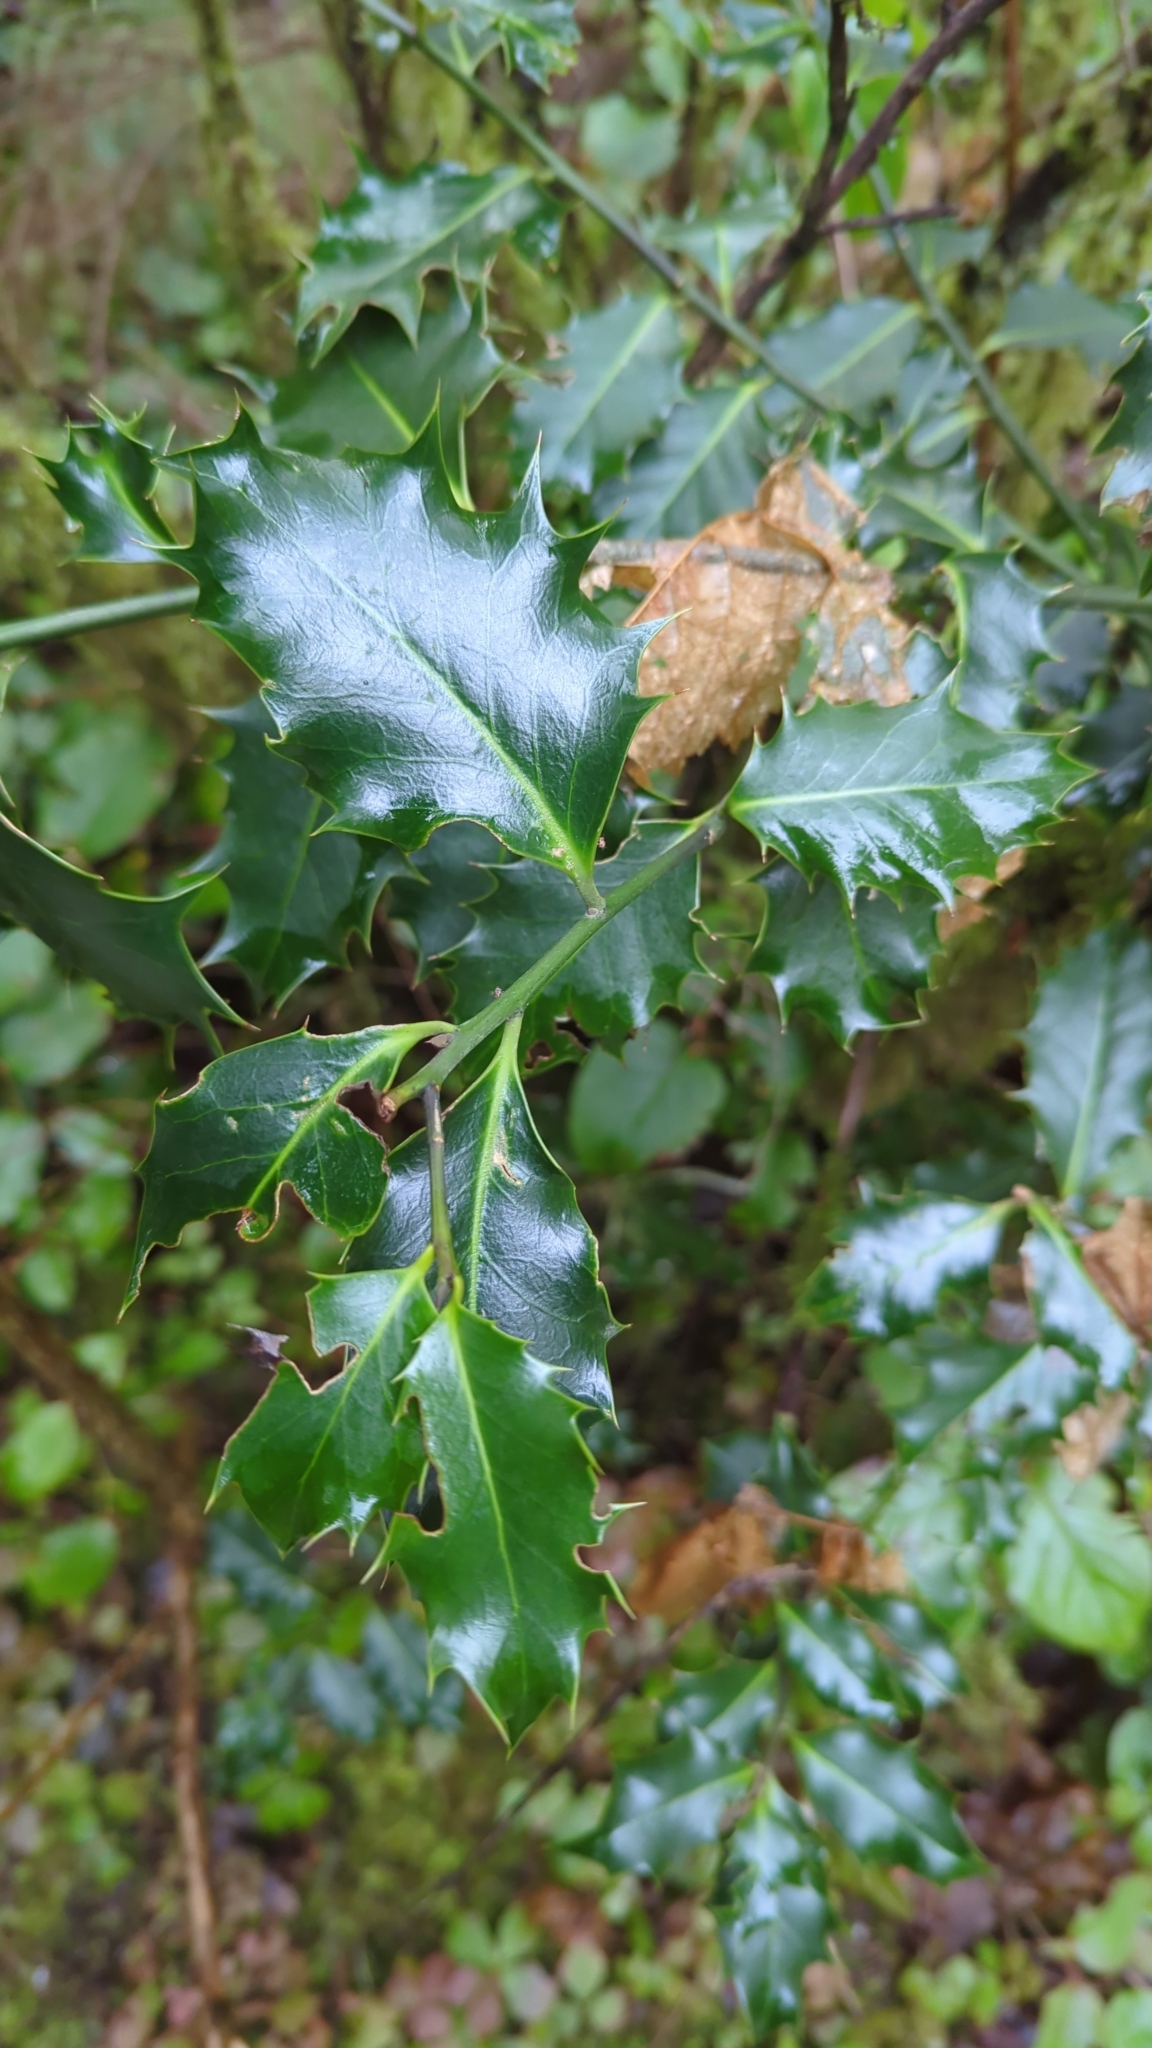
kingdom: Plantae
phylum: Tracheophyta
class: Magnoliopsida
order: Aquifoliales
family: Aquifoliaceae
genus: Ilex
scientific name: Ilex aquifolium
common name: English holly
